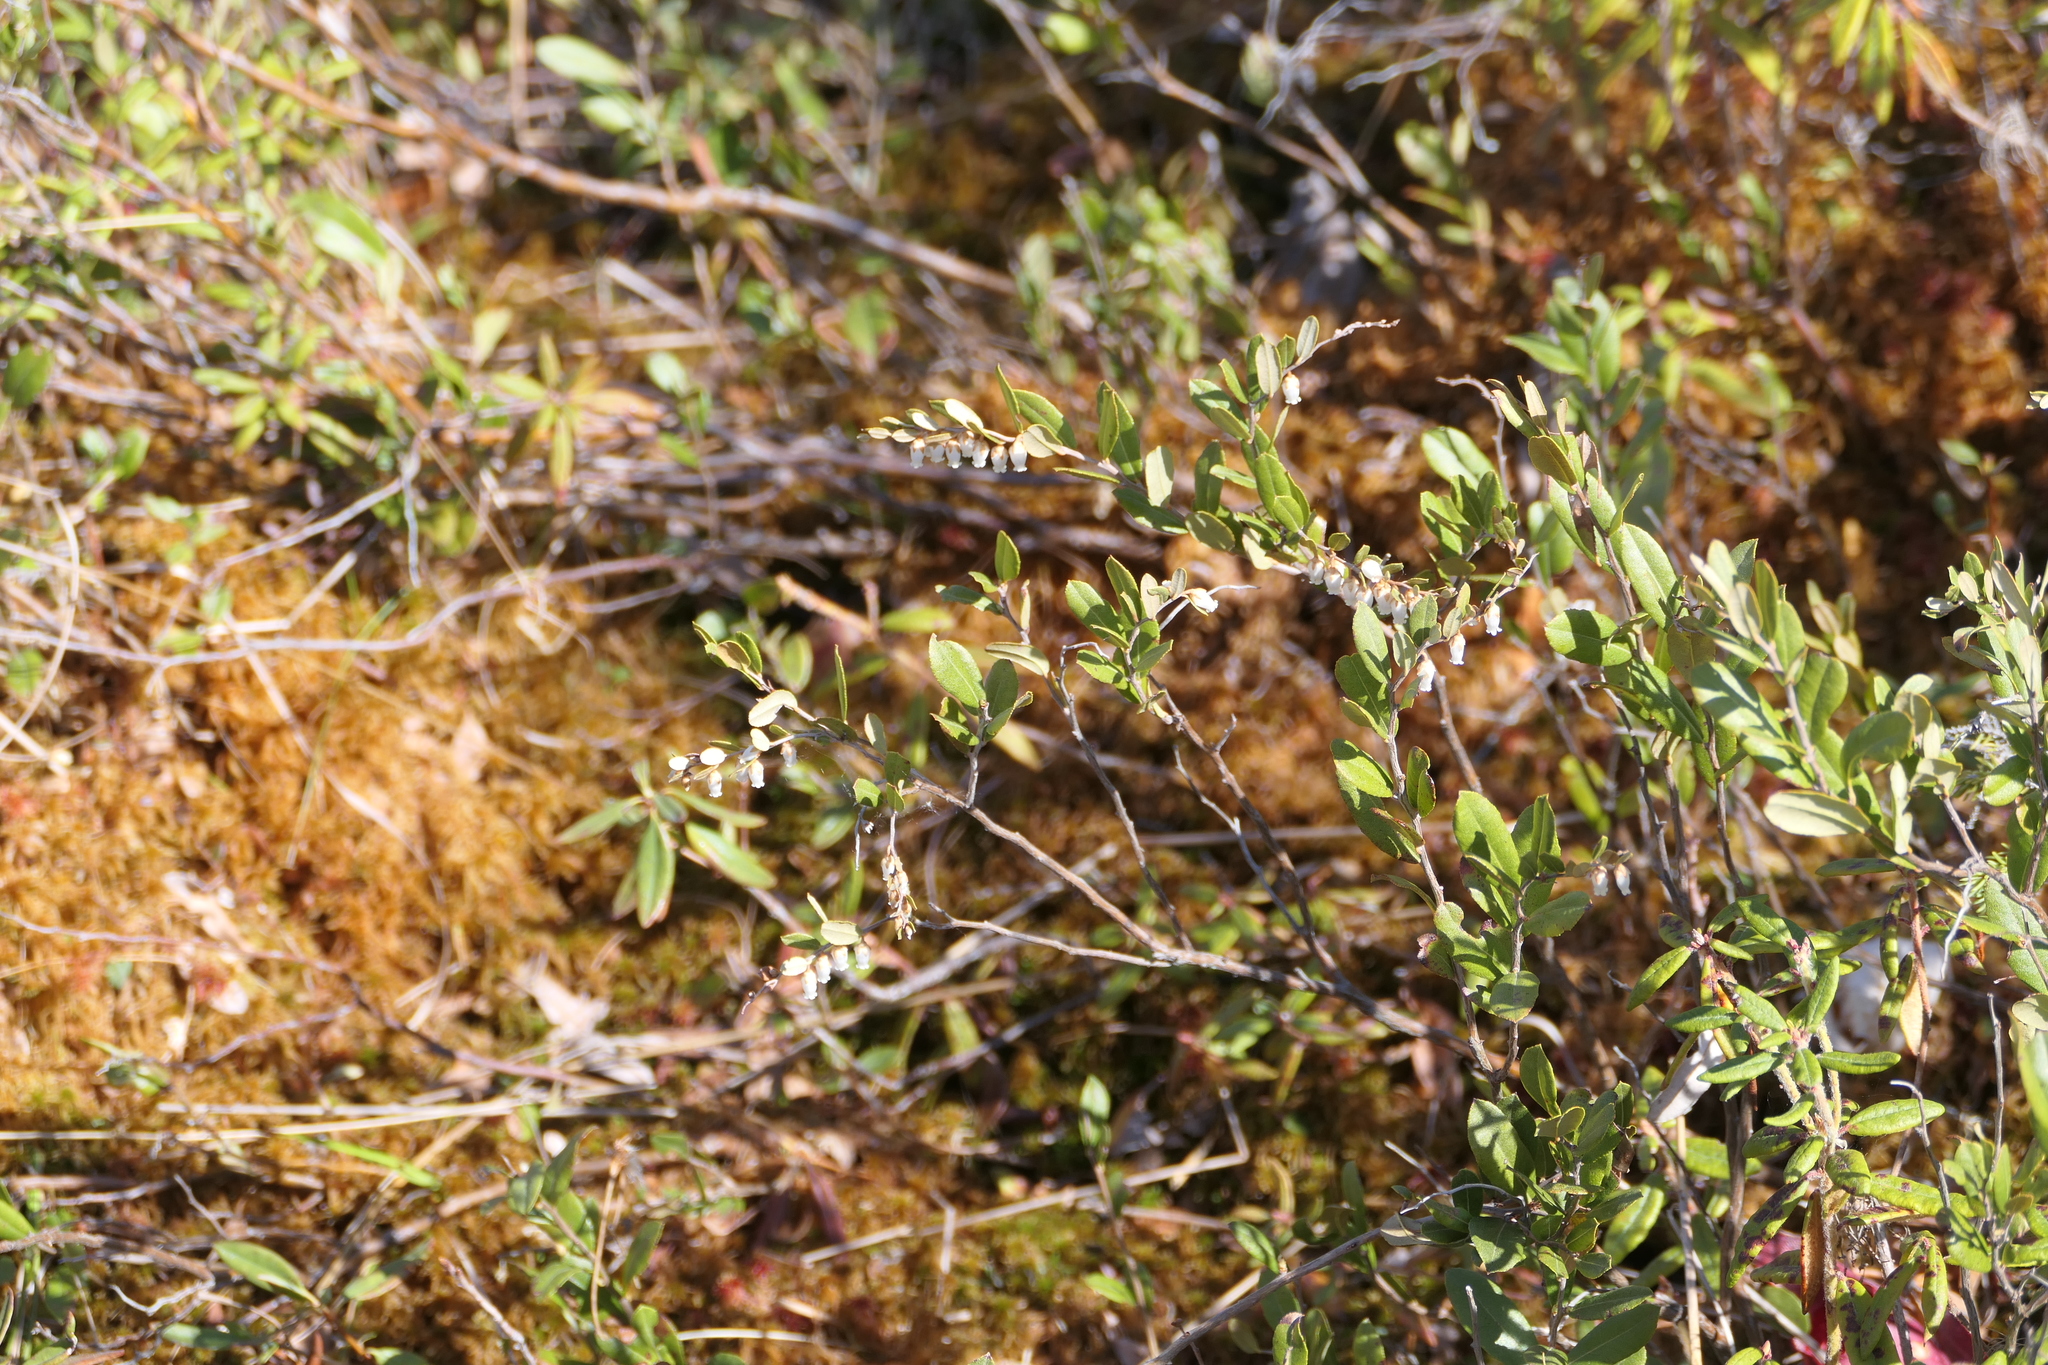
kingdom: Plantae
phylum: Tracheophyta
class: Magnoliopsida
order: Ericales
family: Ericaceae
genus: Chamaedaphne
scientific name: Chamaedaphne calyculata
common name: Leatherleaf
